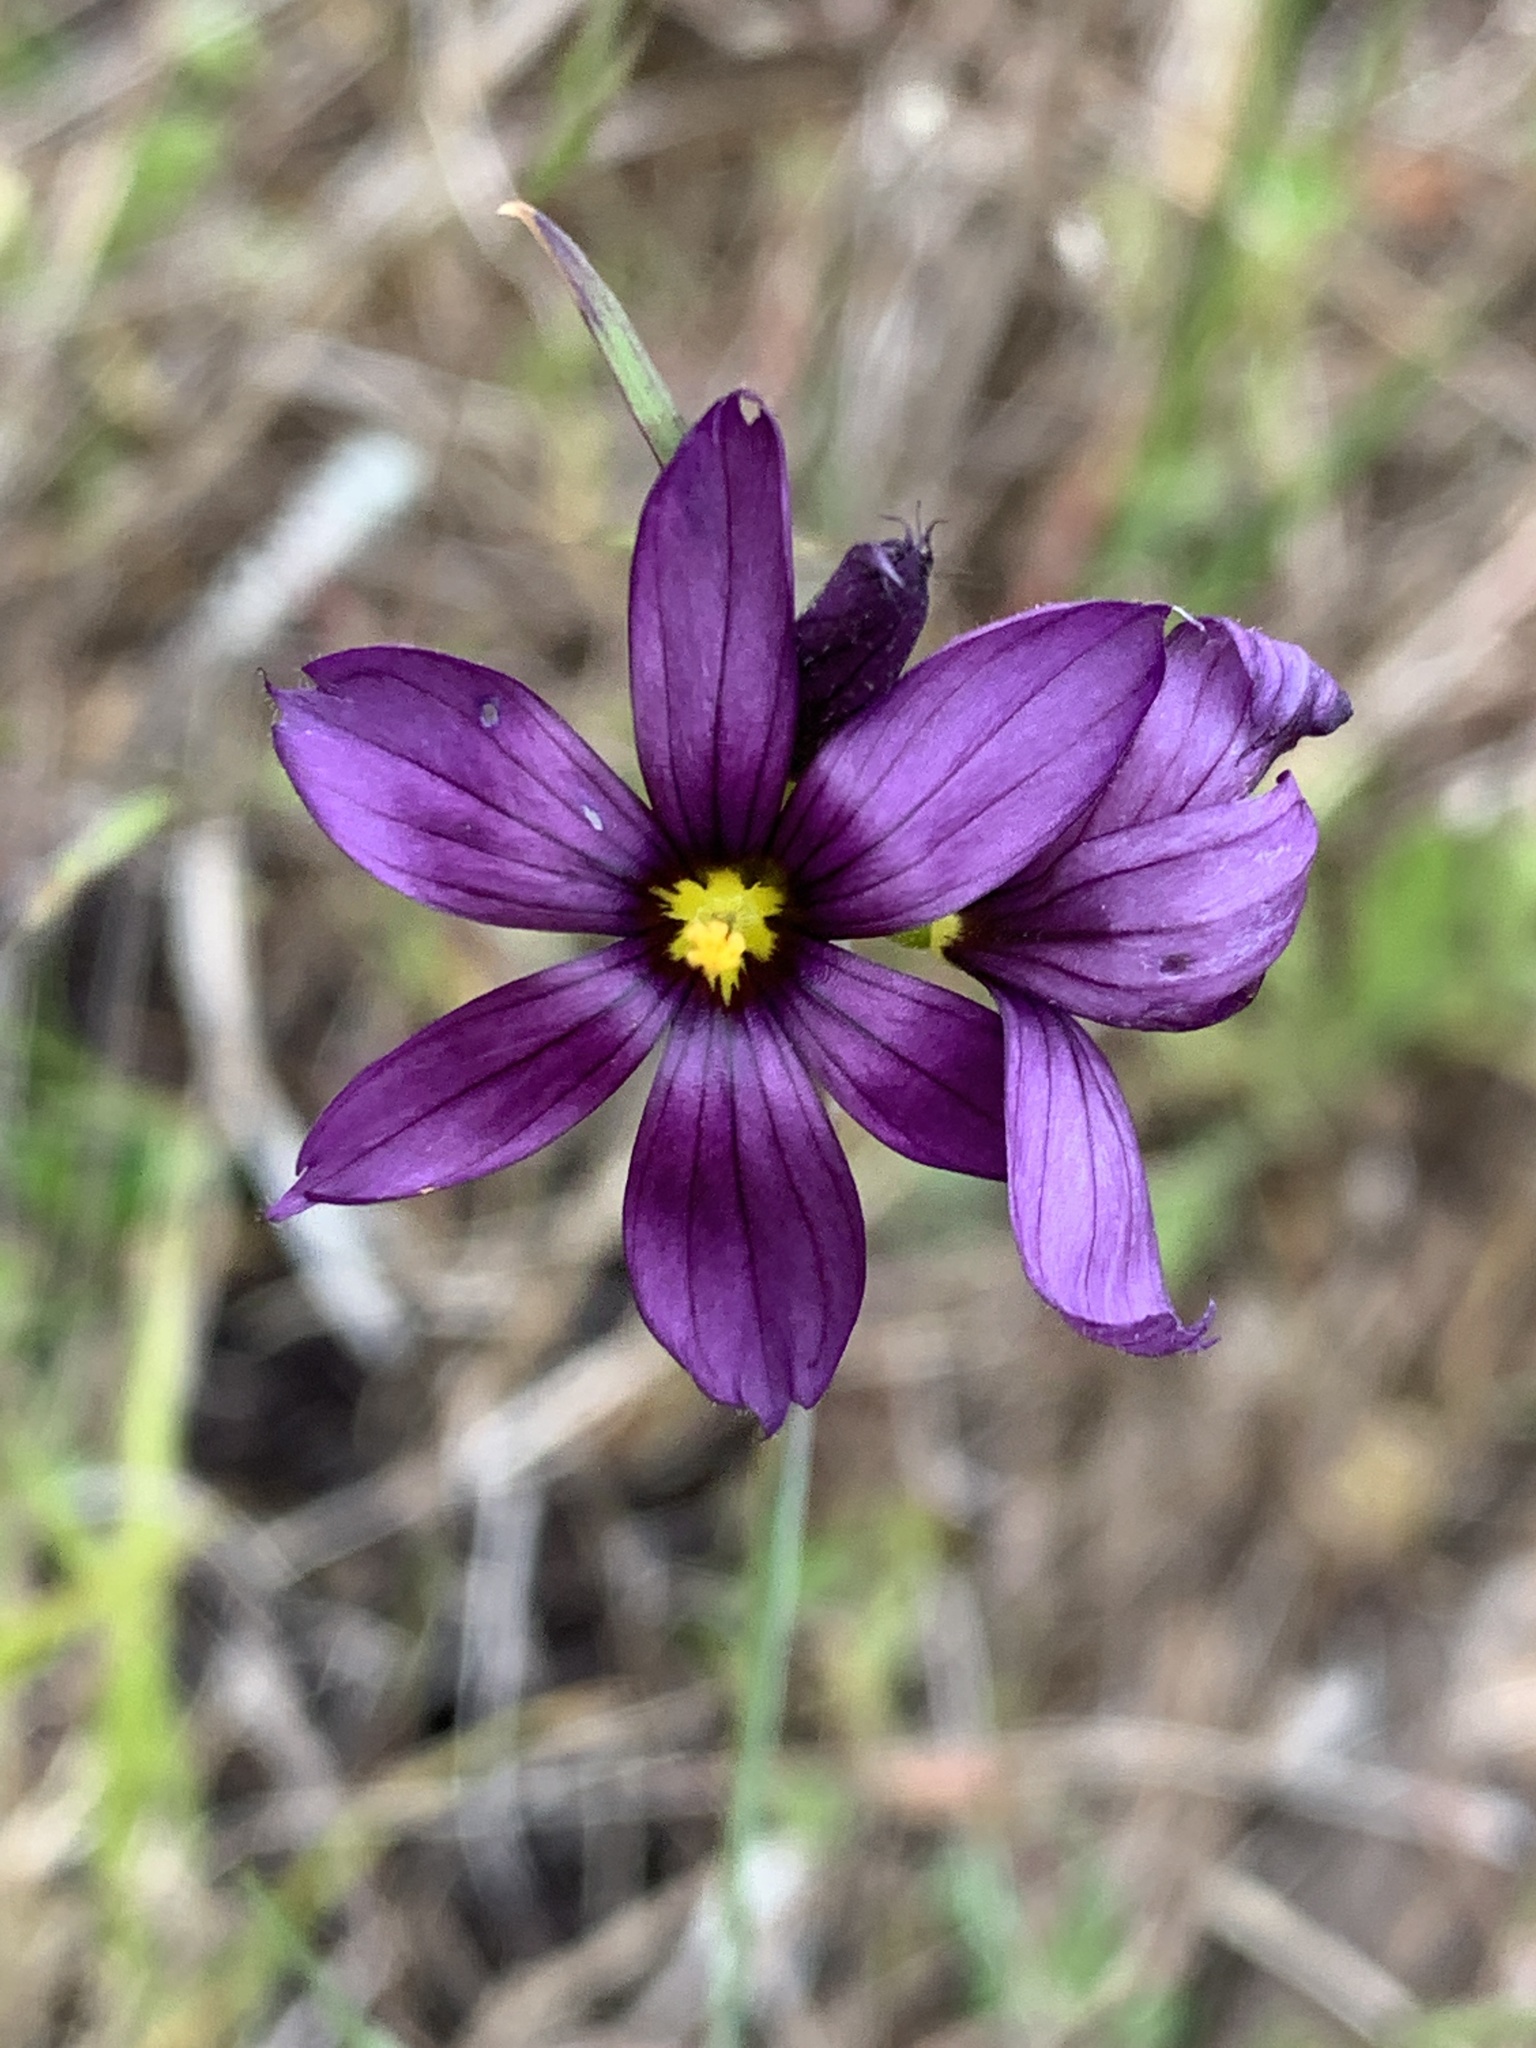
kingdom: Plantae
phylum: Tracheophyta
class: Liliopsida
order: Asparagales
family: Iridaceae
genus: Sisyrinchium
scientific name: Sisyrinchium idahoense
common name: Idaho blue-eyed-grass
